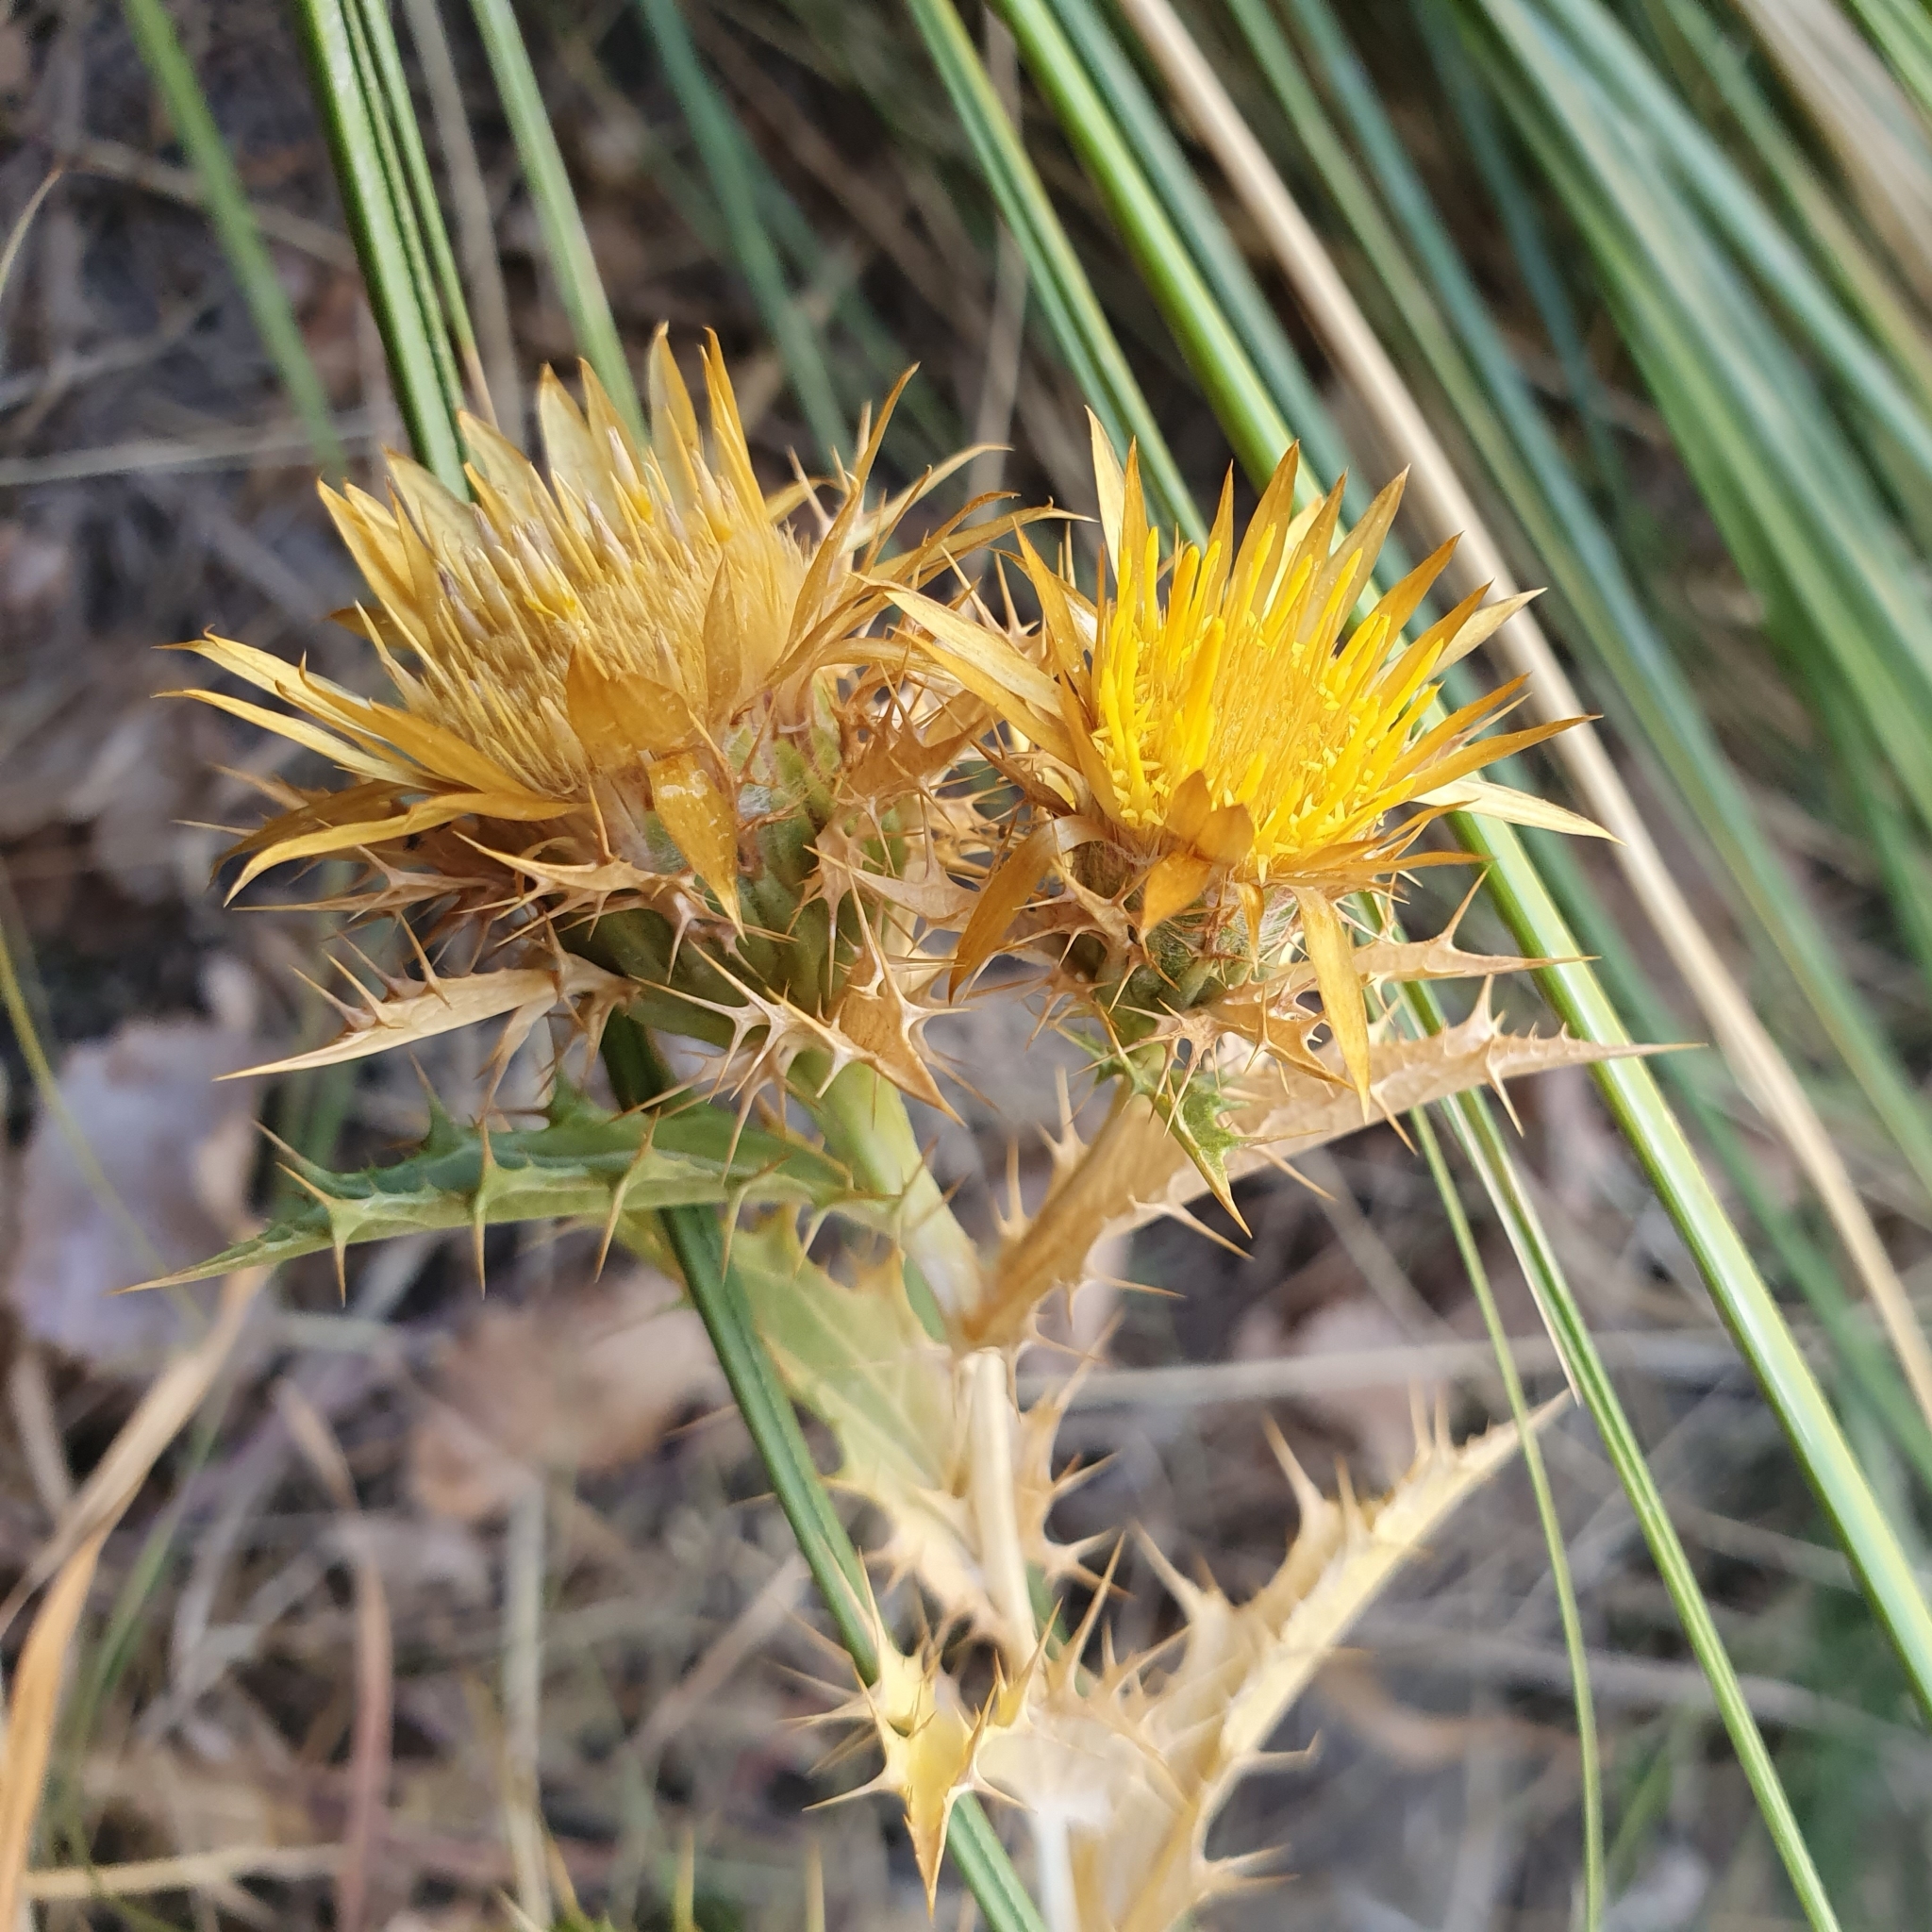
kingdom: Plantae
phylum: Tracheophyta
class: Magnoliopsida
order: Asterales
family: Asteraceae
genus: Carlina
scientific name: Carlina hispanica
